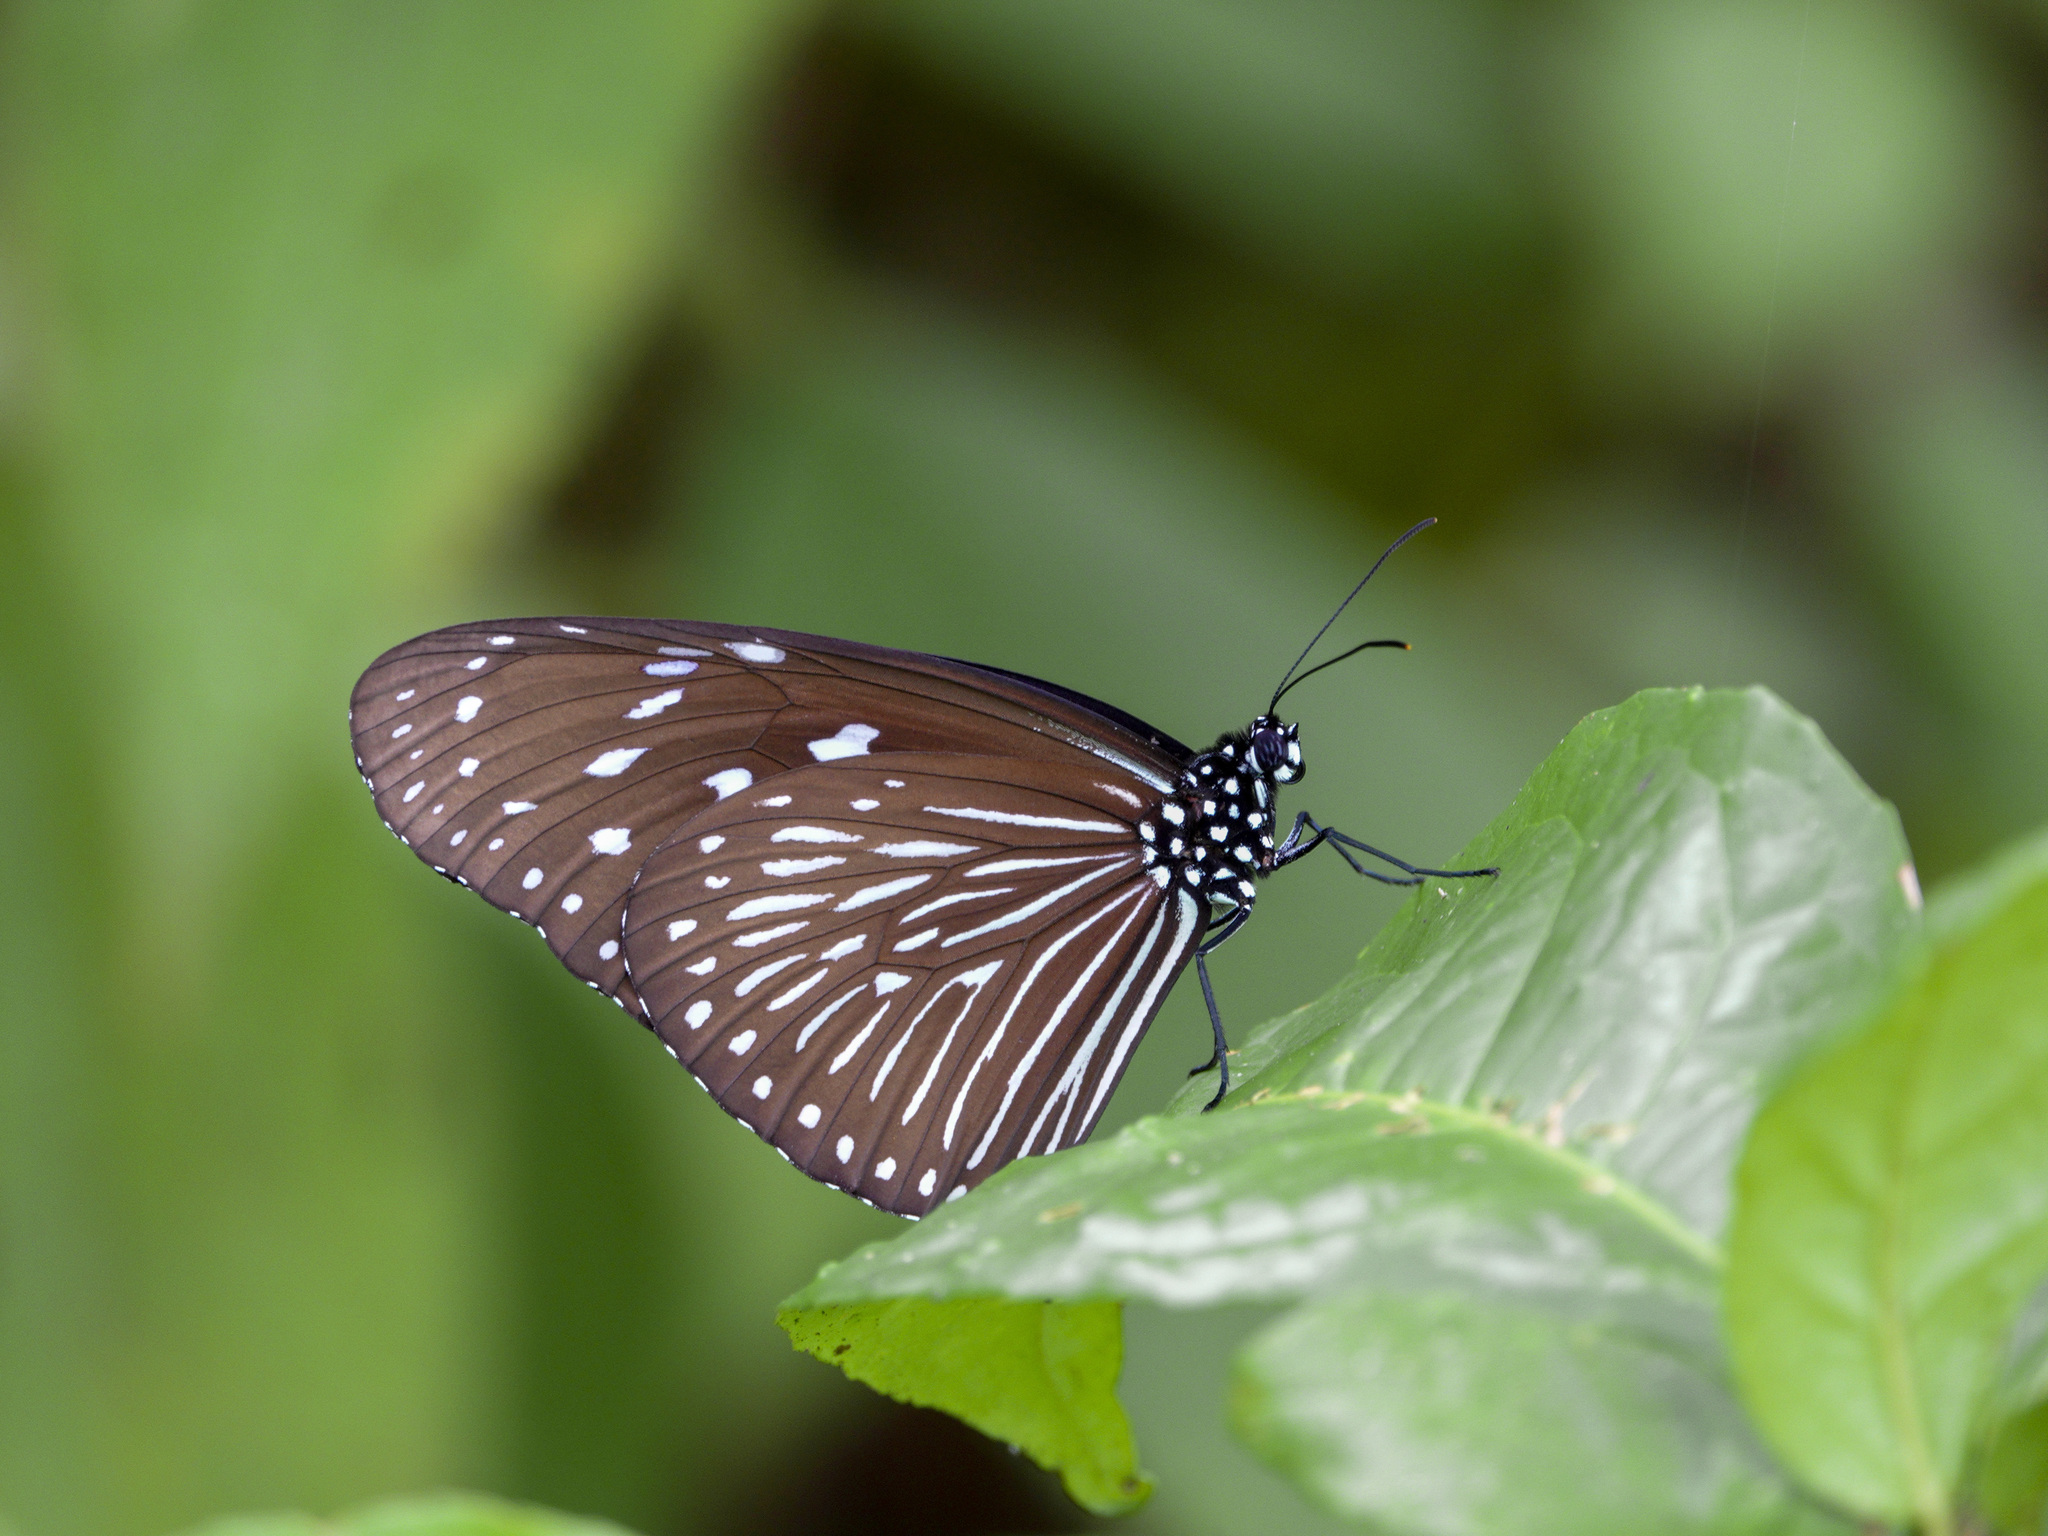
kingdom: Animalia
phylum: Arthropoda
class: Insecta
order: Lepidoptera
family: Nymphalidae
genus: Euploea
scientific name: Euploea mulciber
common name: Striped blue crow butterfly
